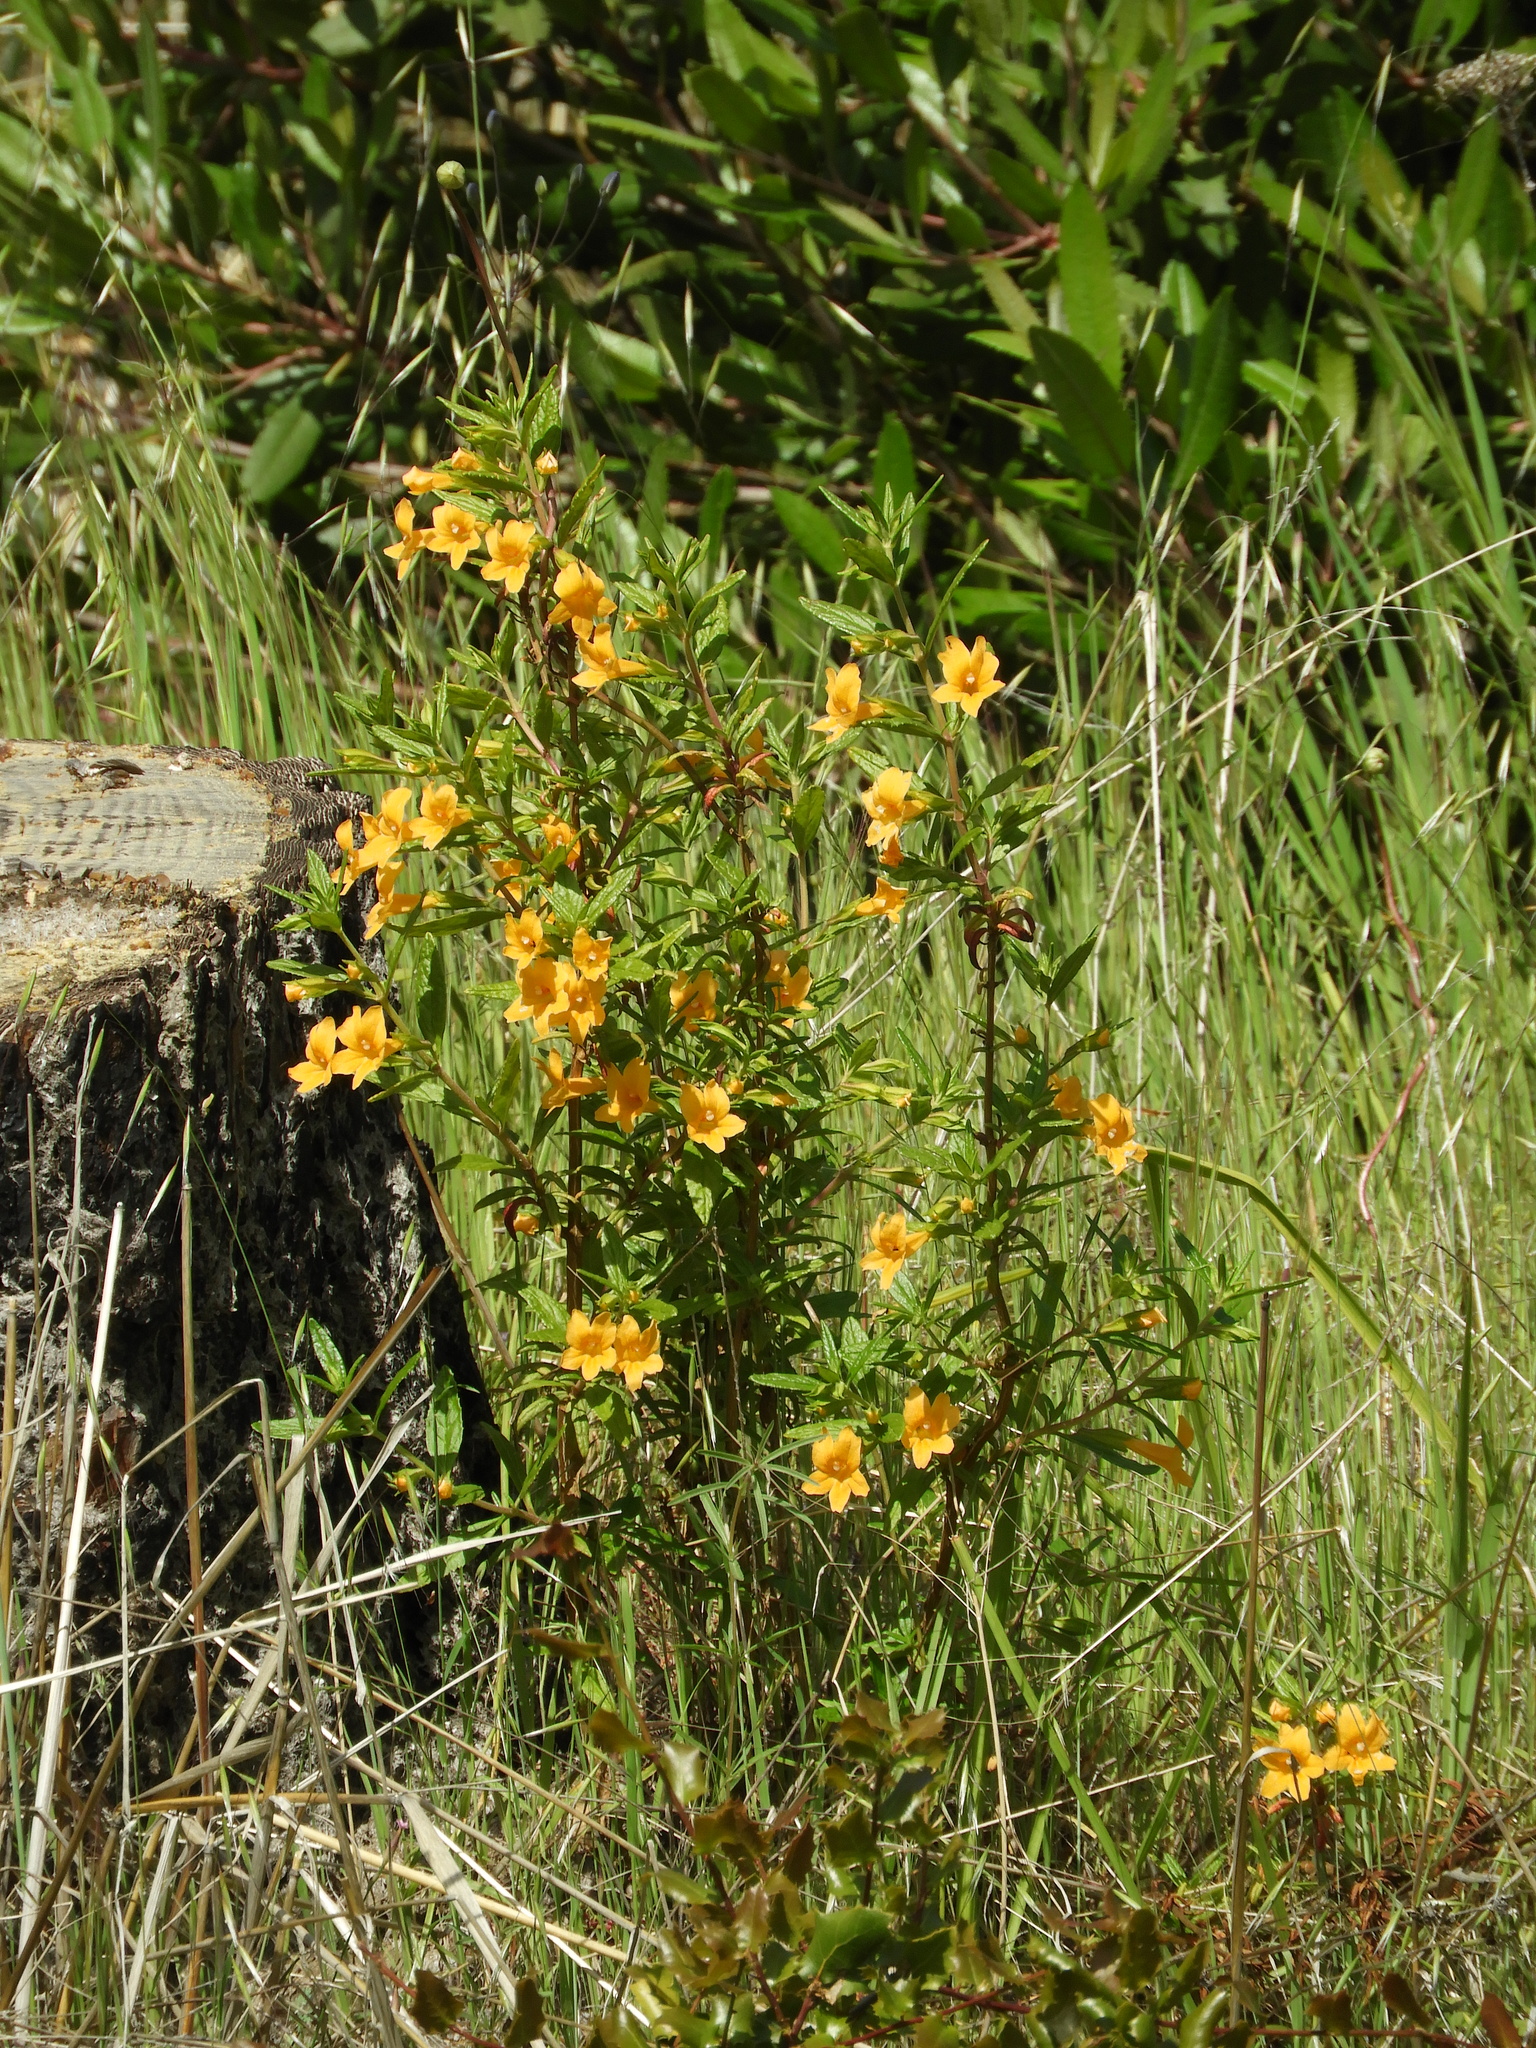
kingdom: Plantae
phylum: Tracheophyta
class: Magnoliopsida
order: Lamiales
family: Phrymaceae
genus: Diplacus
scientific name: Diplacus aurantiacus
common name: Bush monkey-flower
